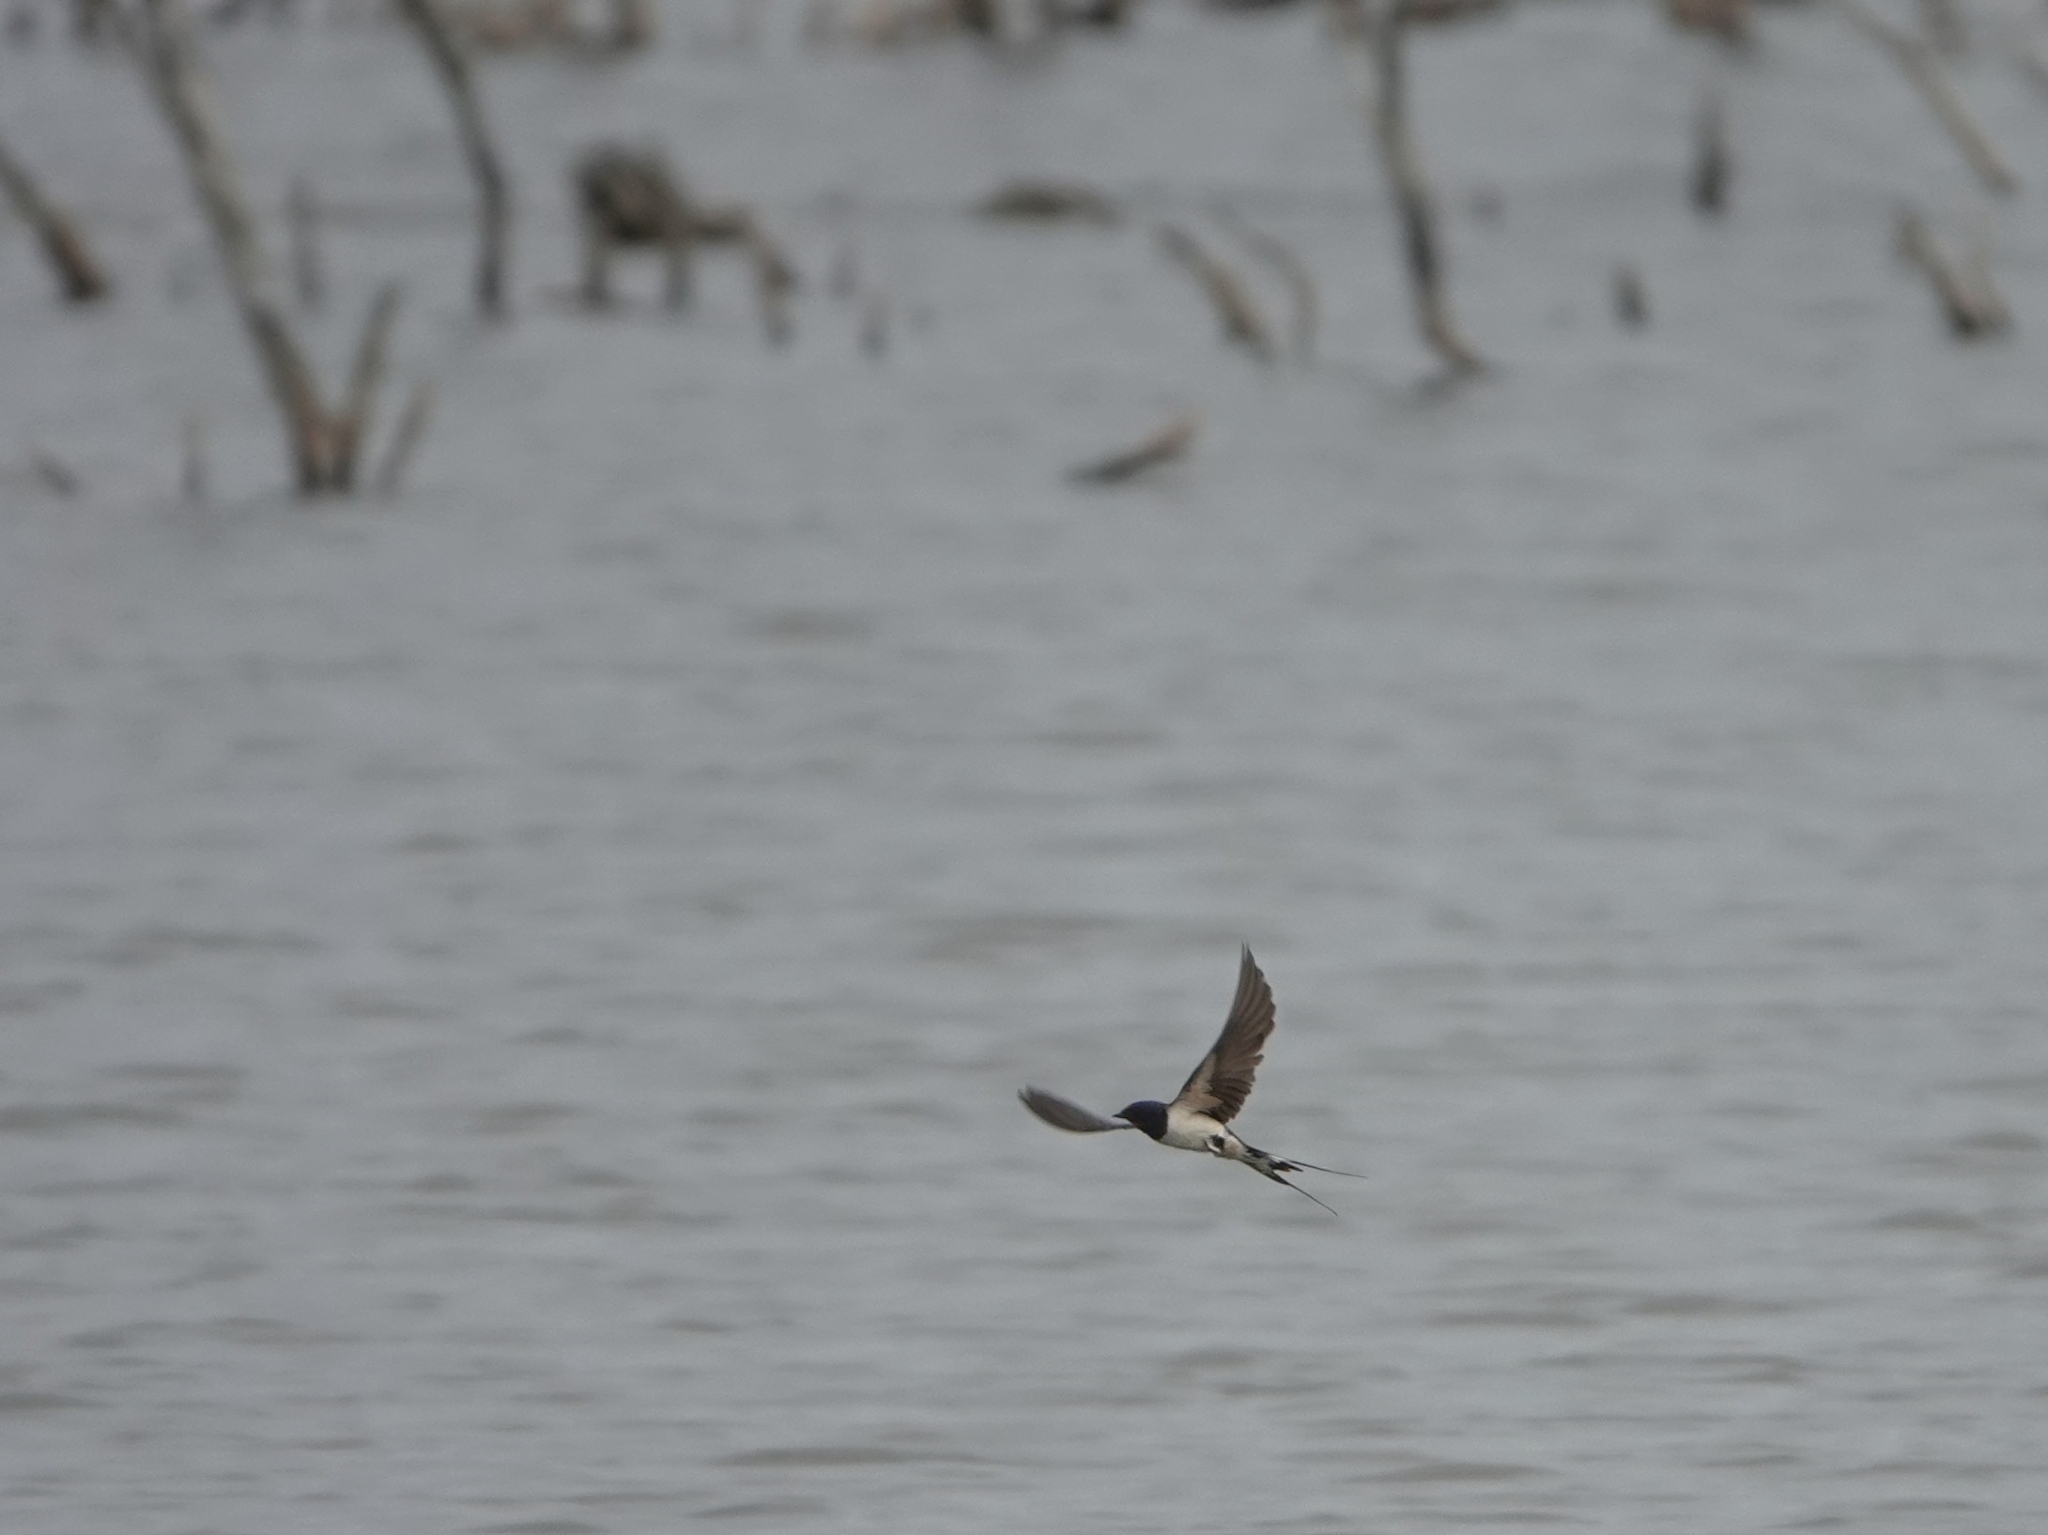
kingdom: Animalia
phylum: Chordata
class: Aves
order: Passeriformes
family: Hirundinidae
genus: Hirundo
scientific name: Hirundo rustica
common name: Barn swallow
